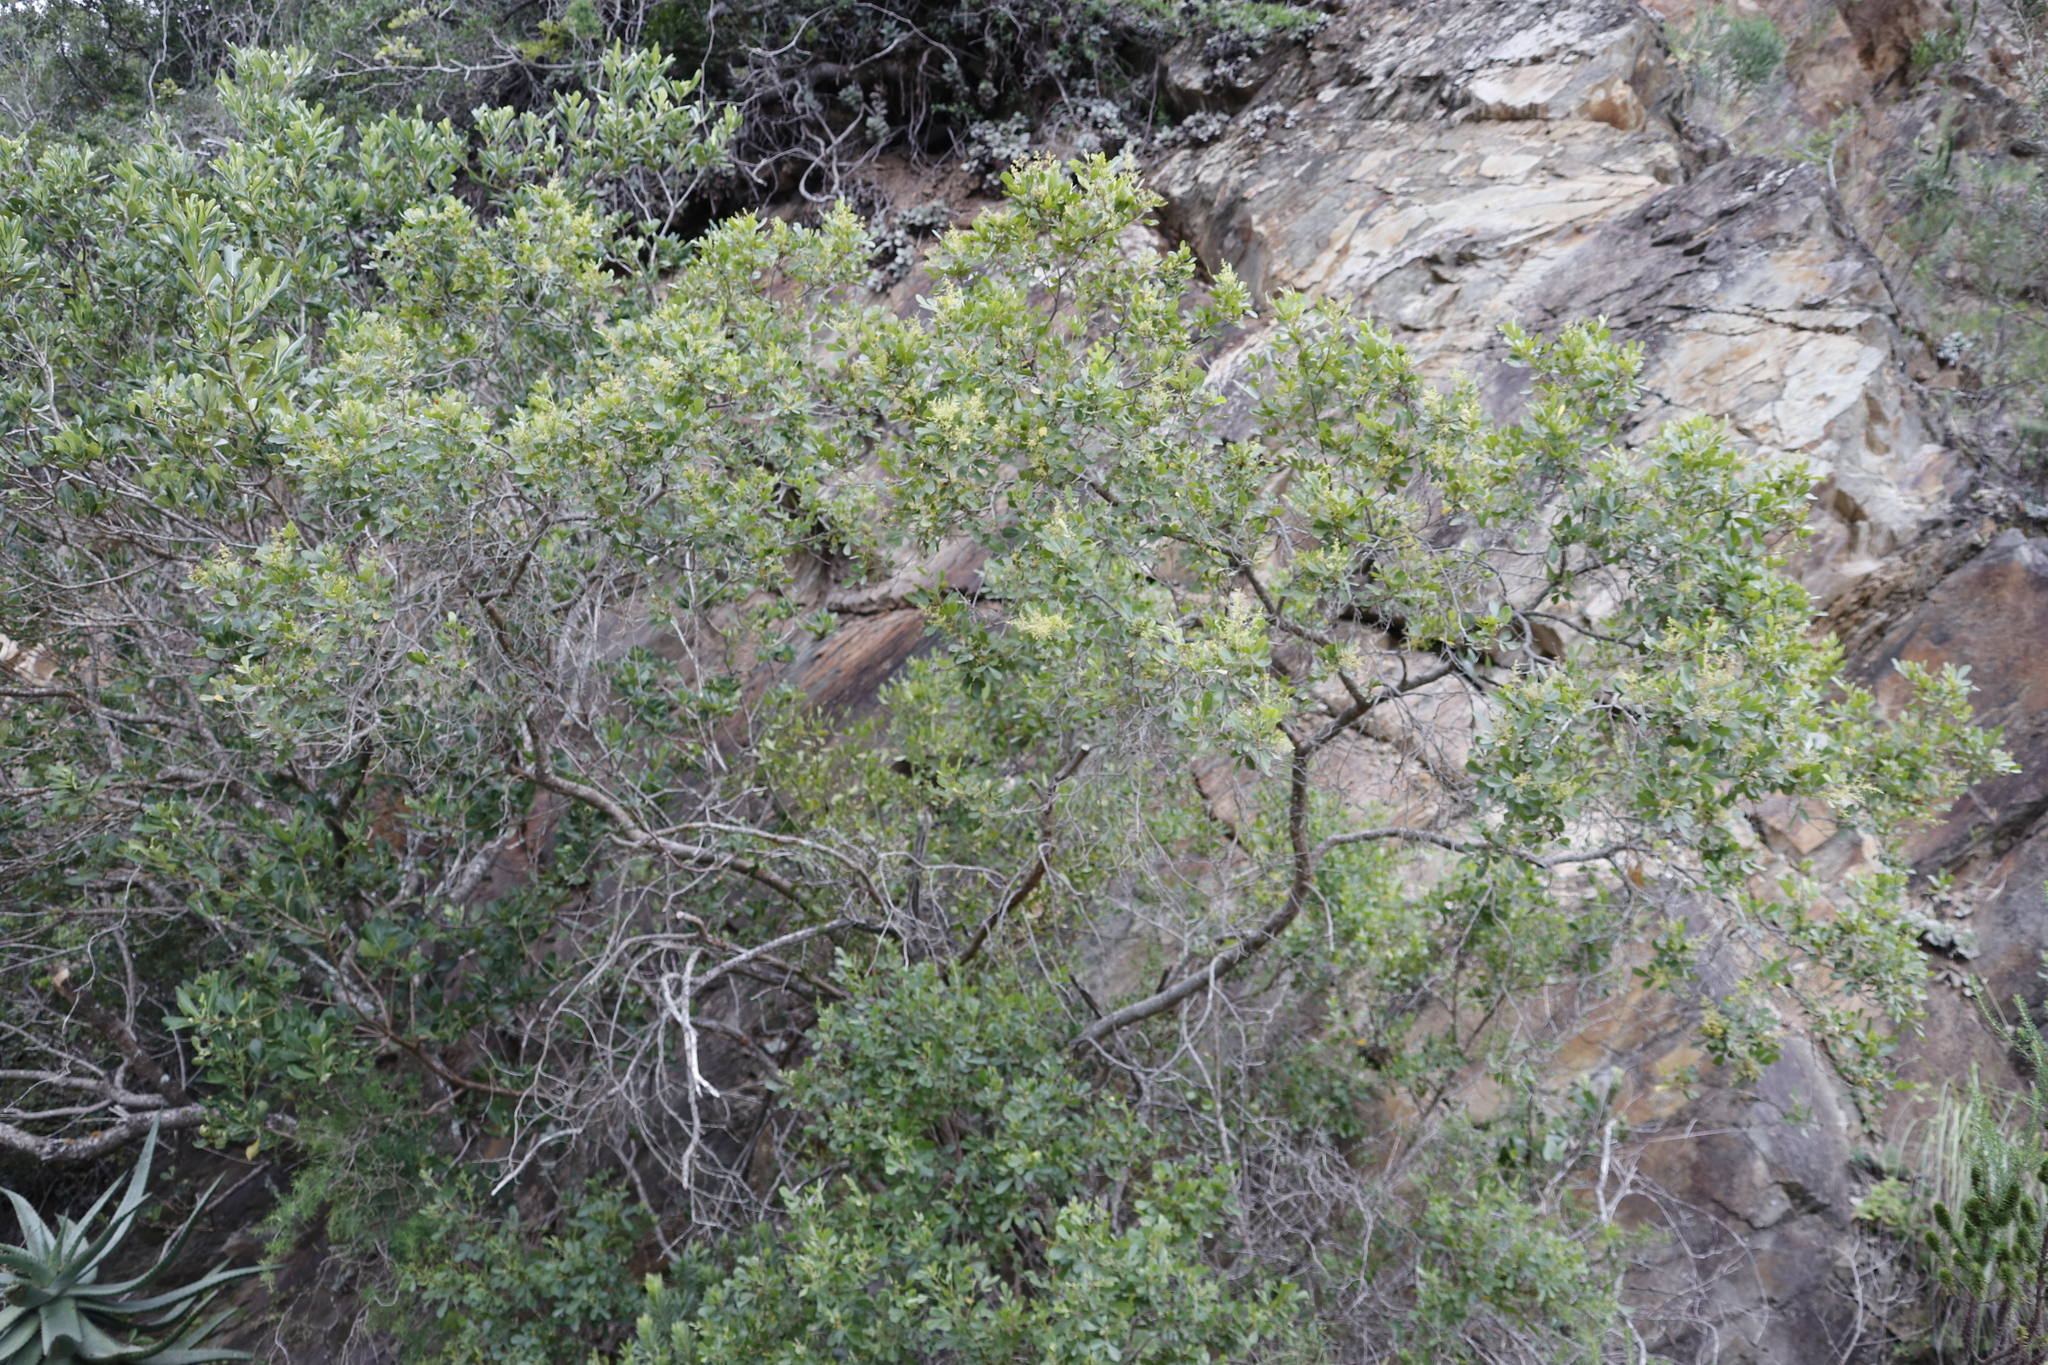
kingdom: Plantae
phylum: Tracheophyta
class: Magnoliopsida
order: Sapindales
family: Anacardiaceae
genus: Searsia
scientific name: Searsia pallens
